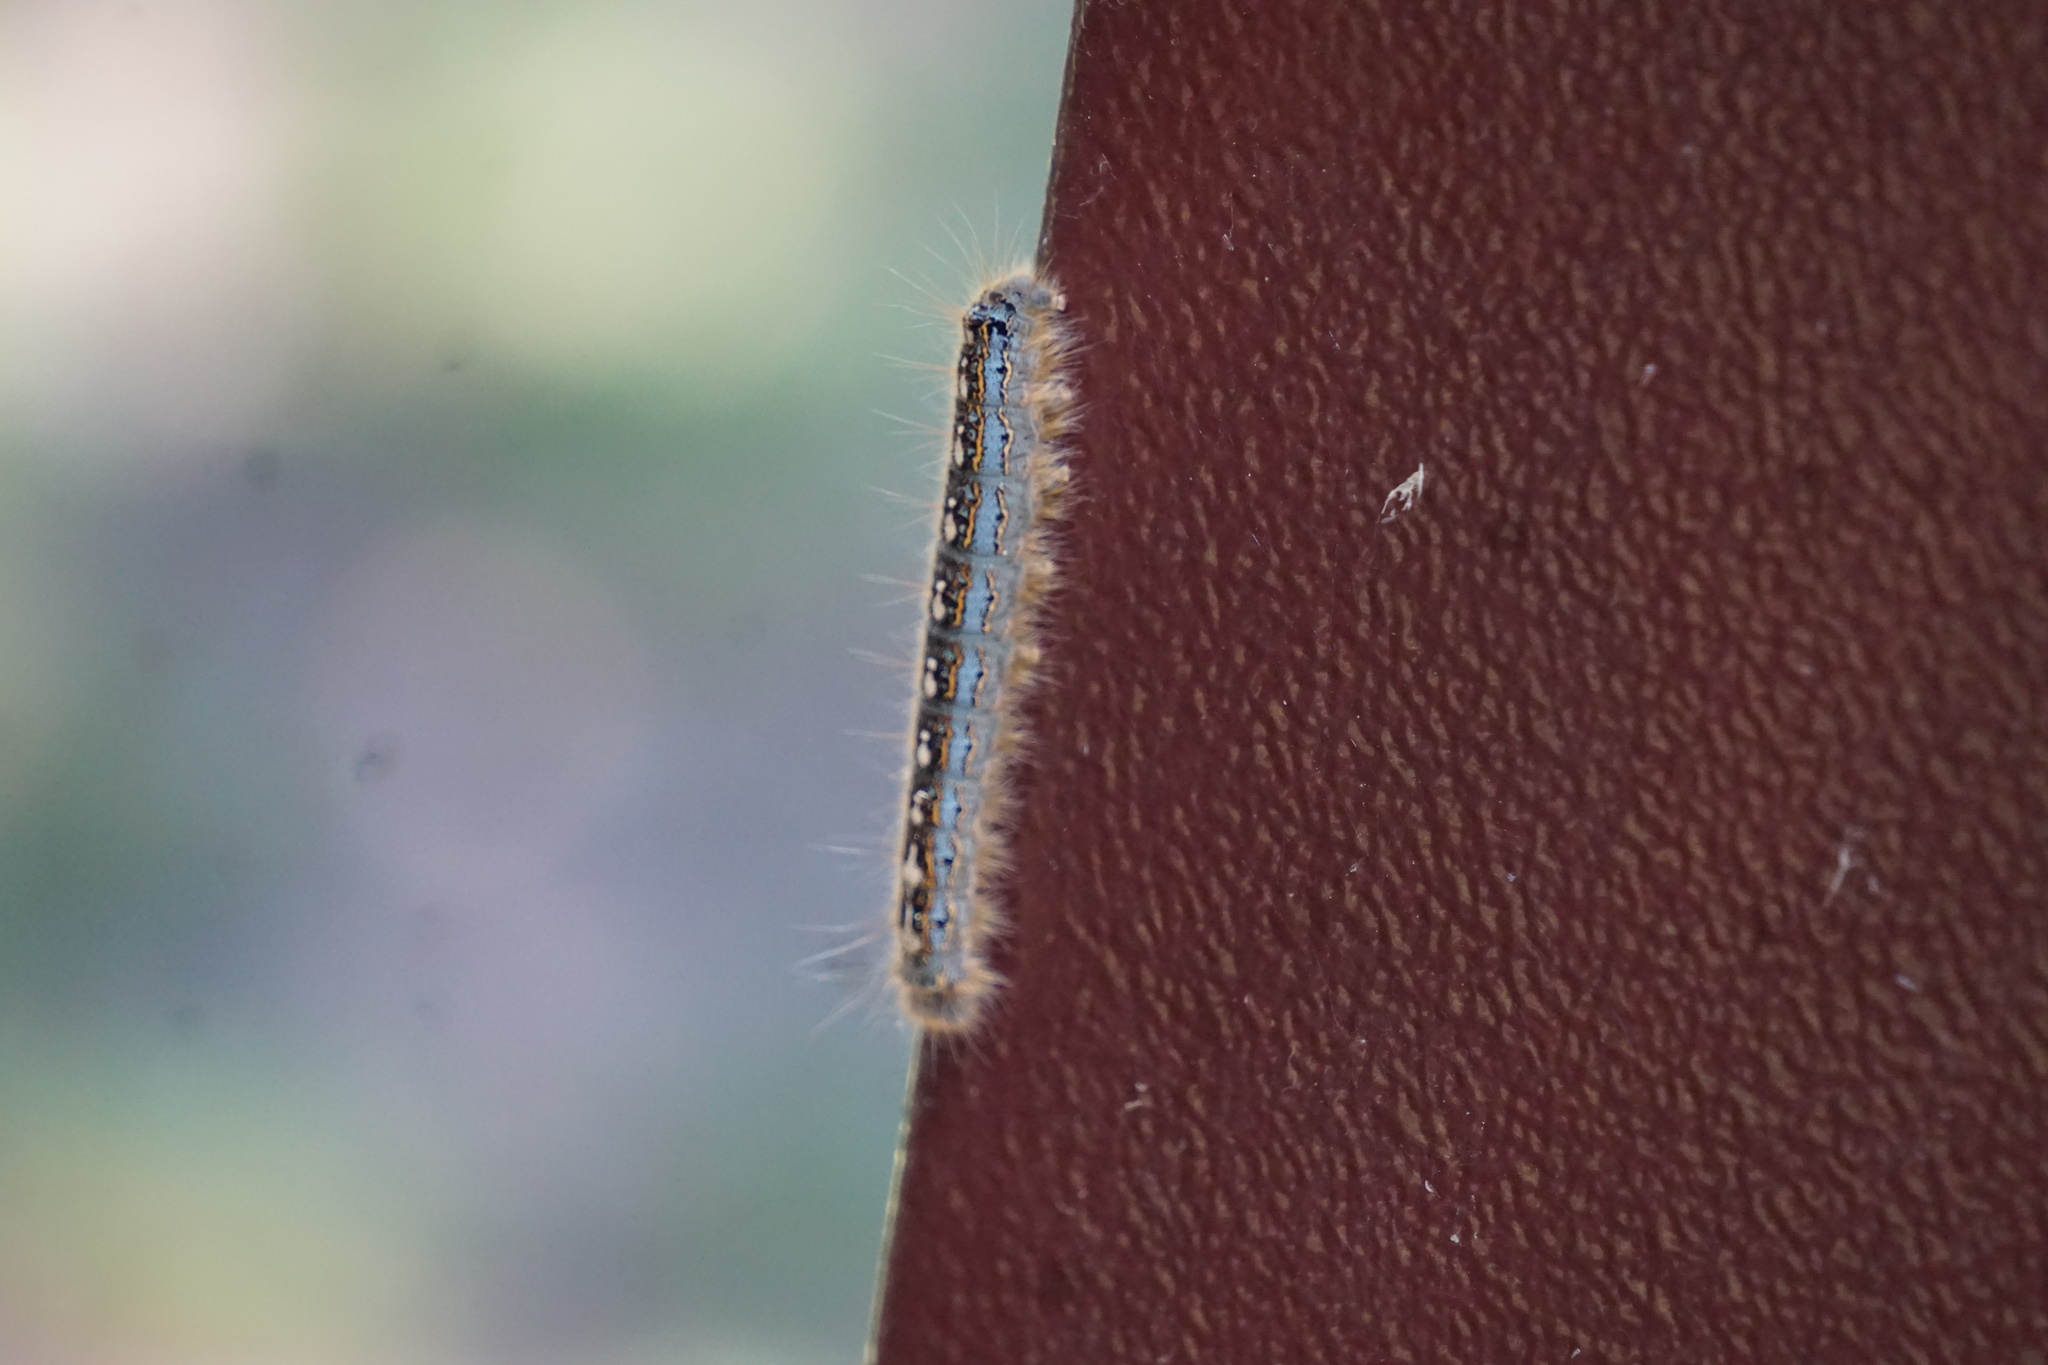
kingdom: Animalia
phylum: Arthropoda
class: Insecta
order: Lepidoptera
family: Lasiocampidae
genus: Malacosoma
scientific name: Malacosoma disstria
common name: Forest tent caterpillar
